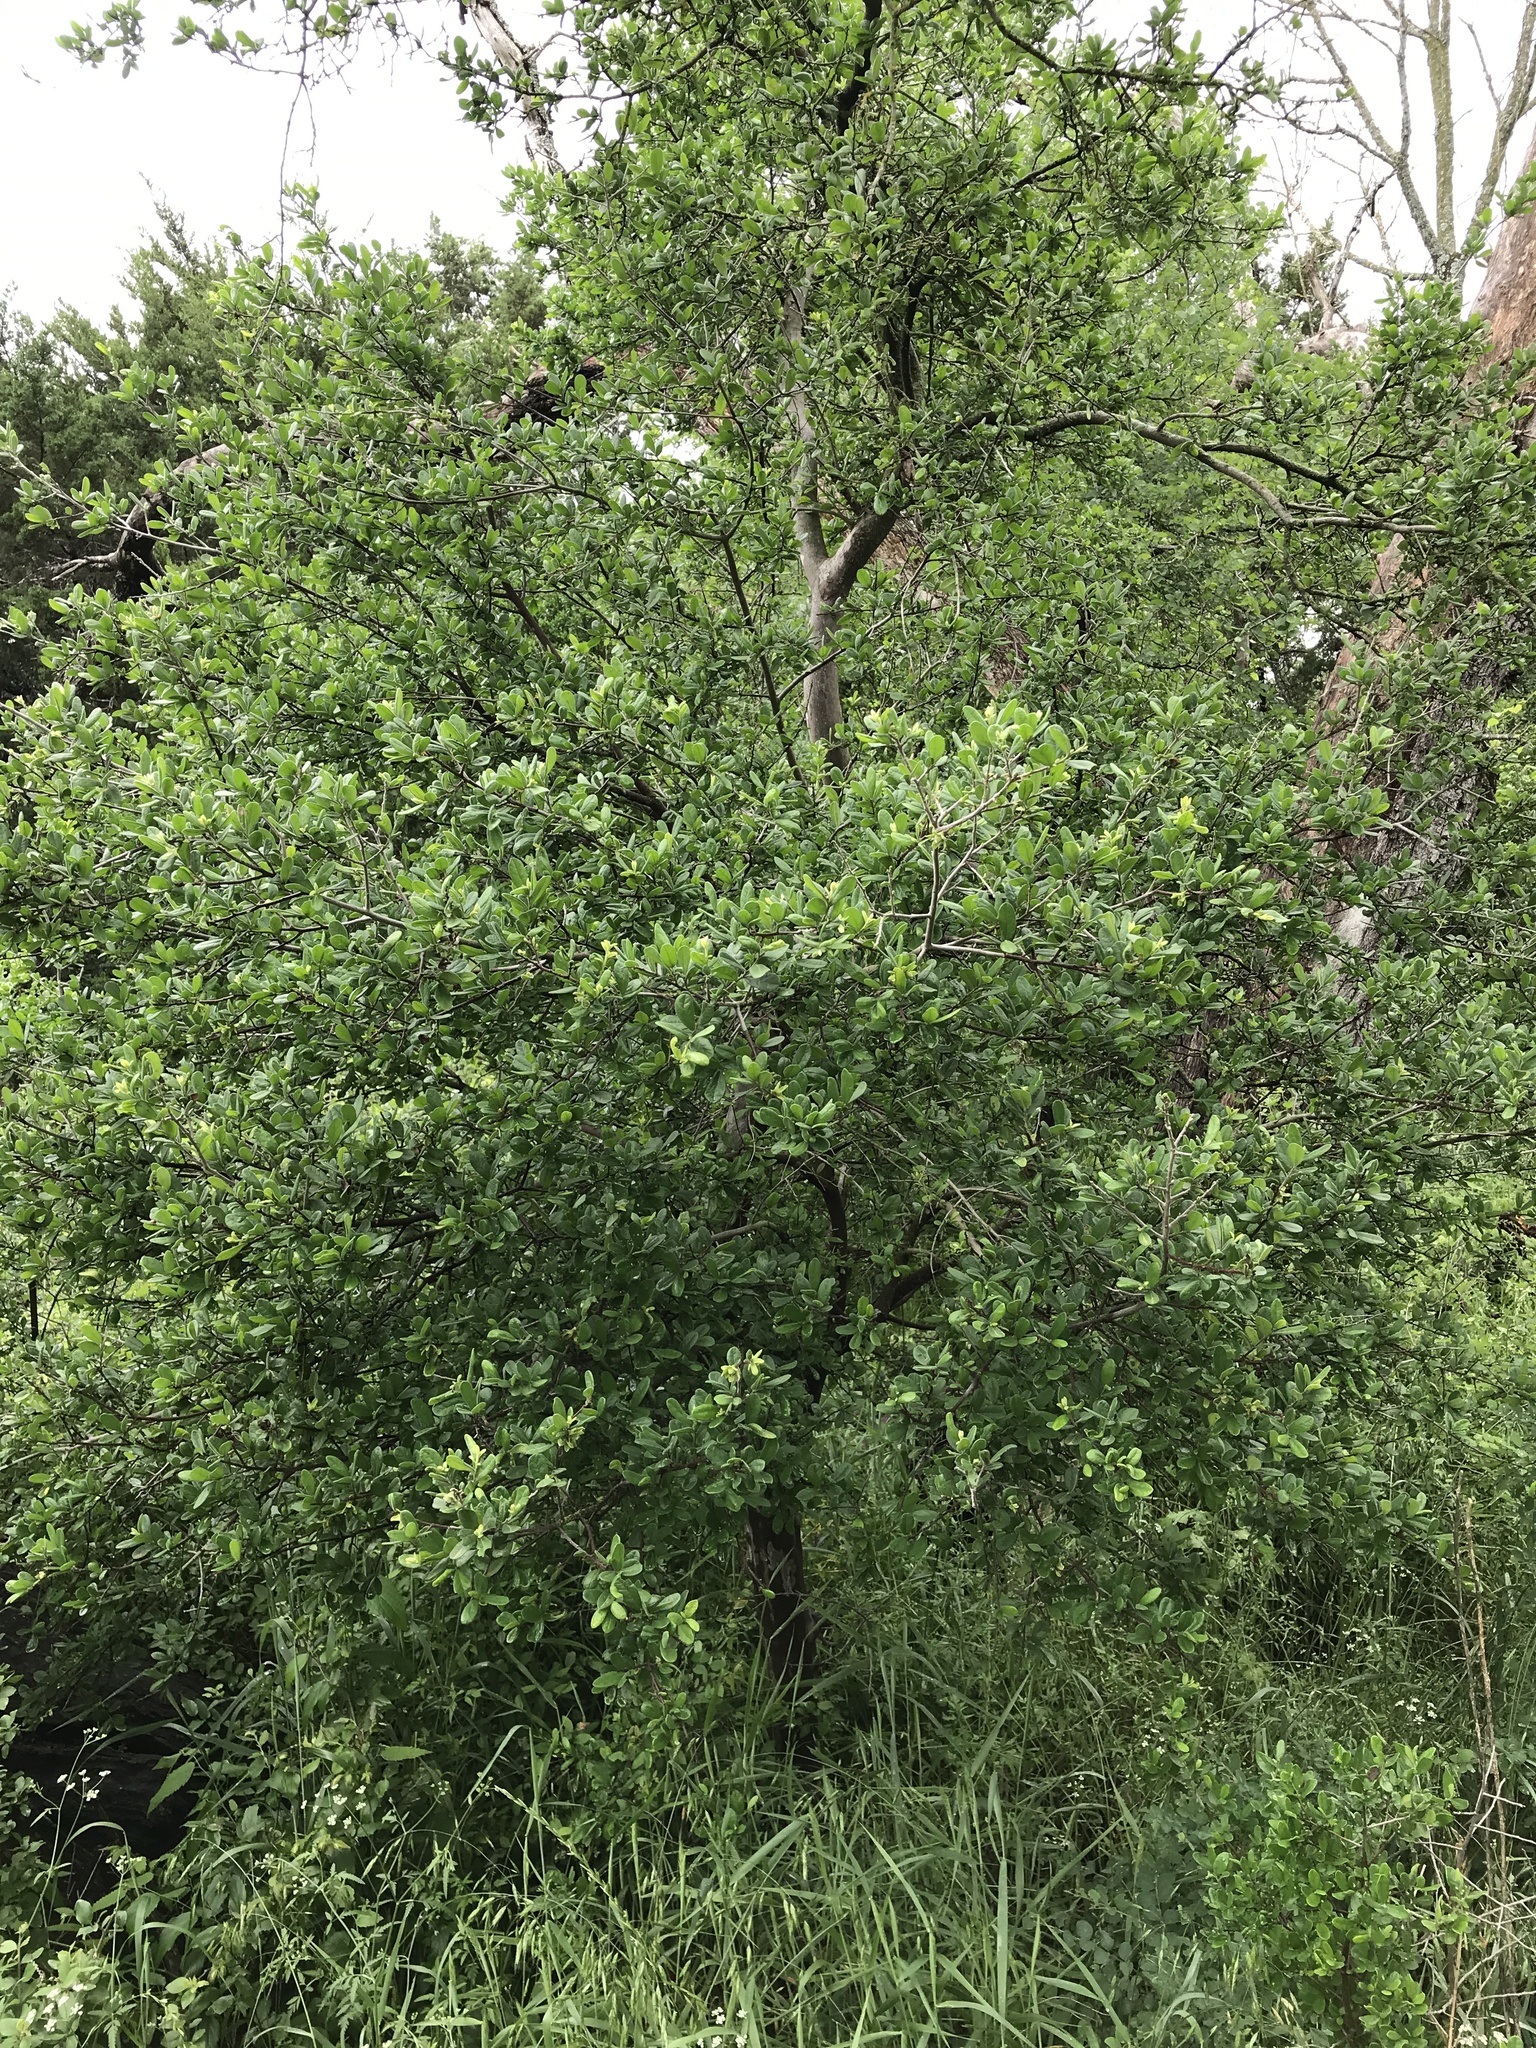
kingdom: Plantae
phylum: Tracheophyta
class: Magnoliopsida
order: Ericales
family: Ebenaceae
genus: Diospyros
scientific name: Diospyros texana
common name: Texas persimmon
